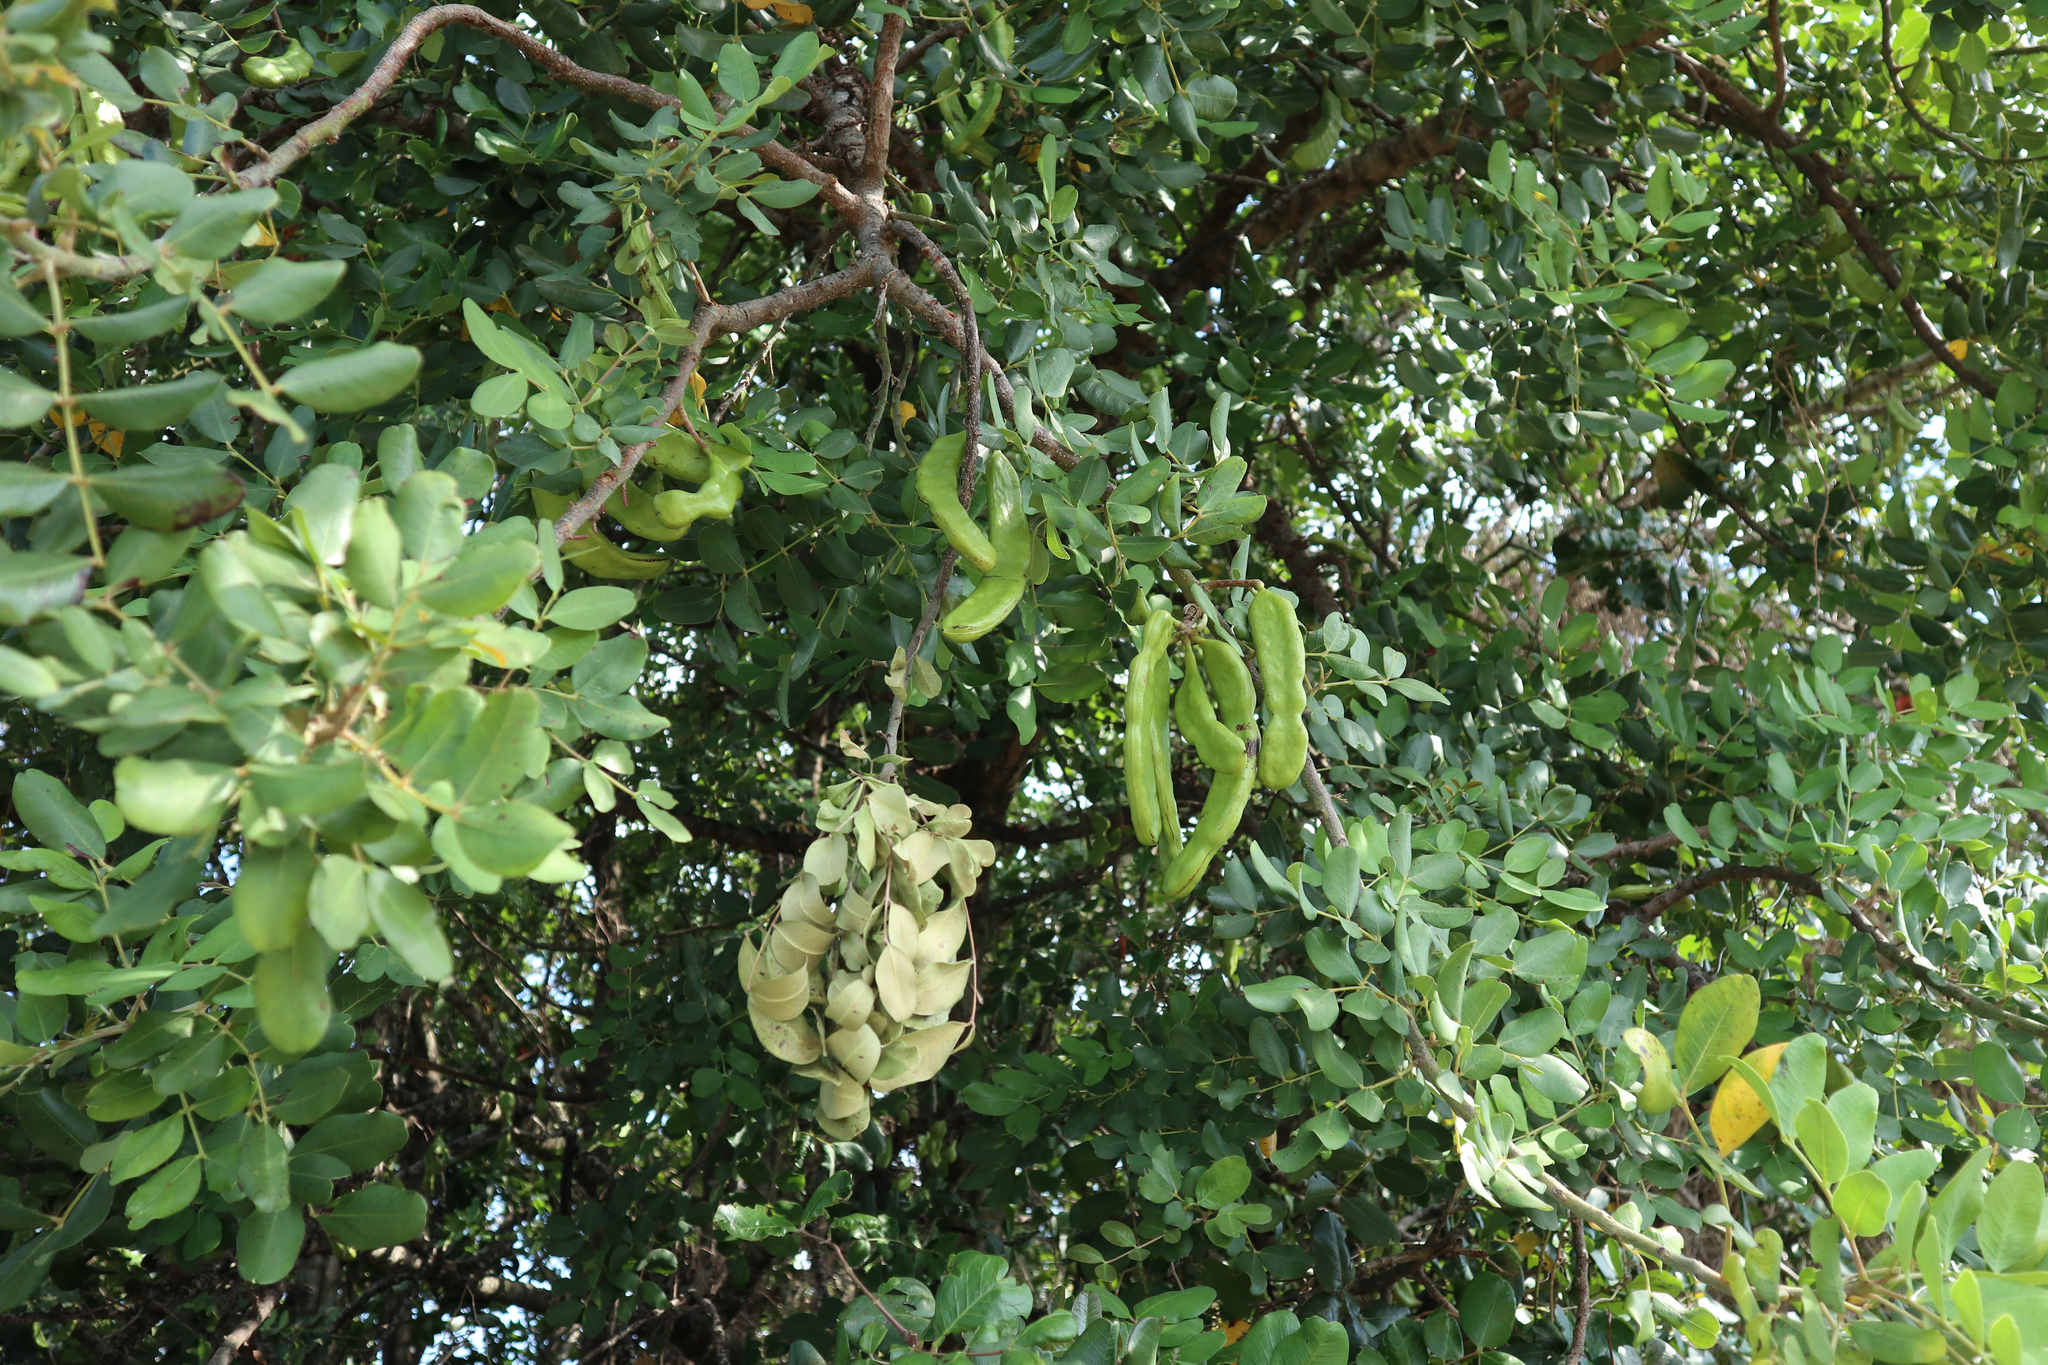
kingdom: Plantae
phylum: Tracheophyta
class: Magnoliopsida
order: Fabales
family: Fabaceae
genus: Ceratonia
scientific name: Ceratonia siliqua
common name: Carob
